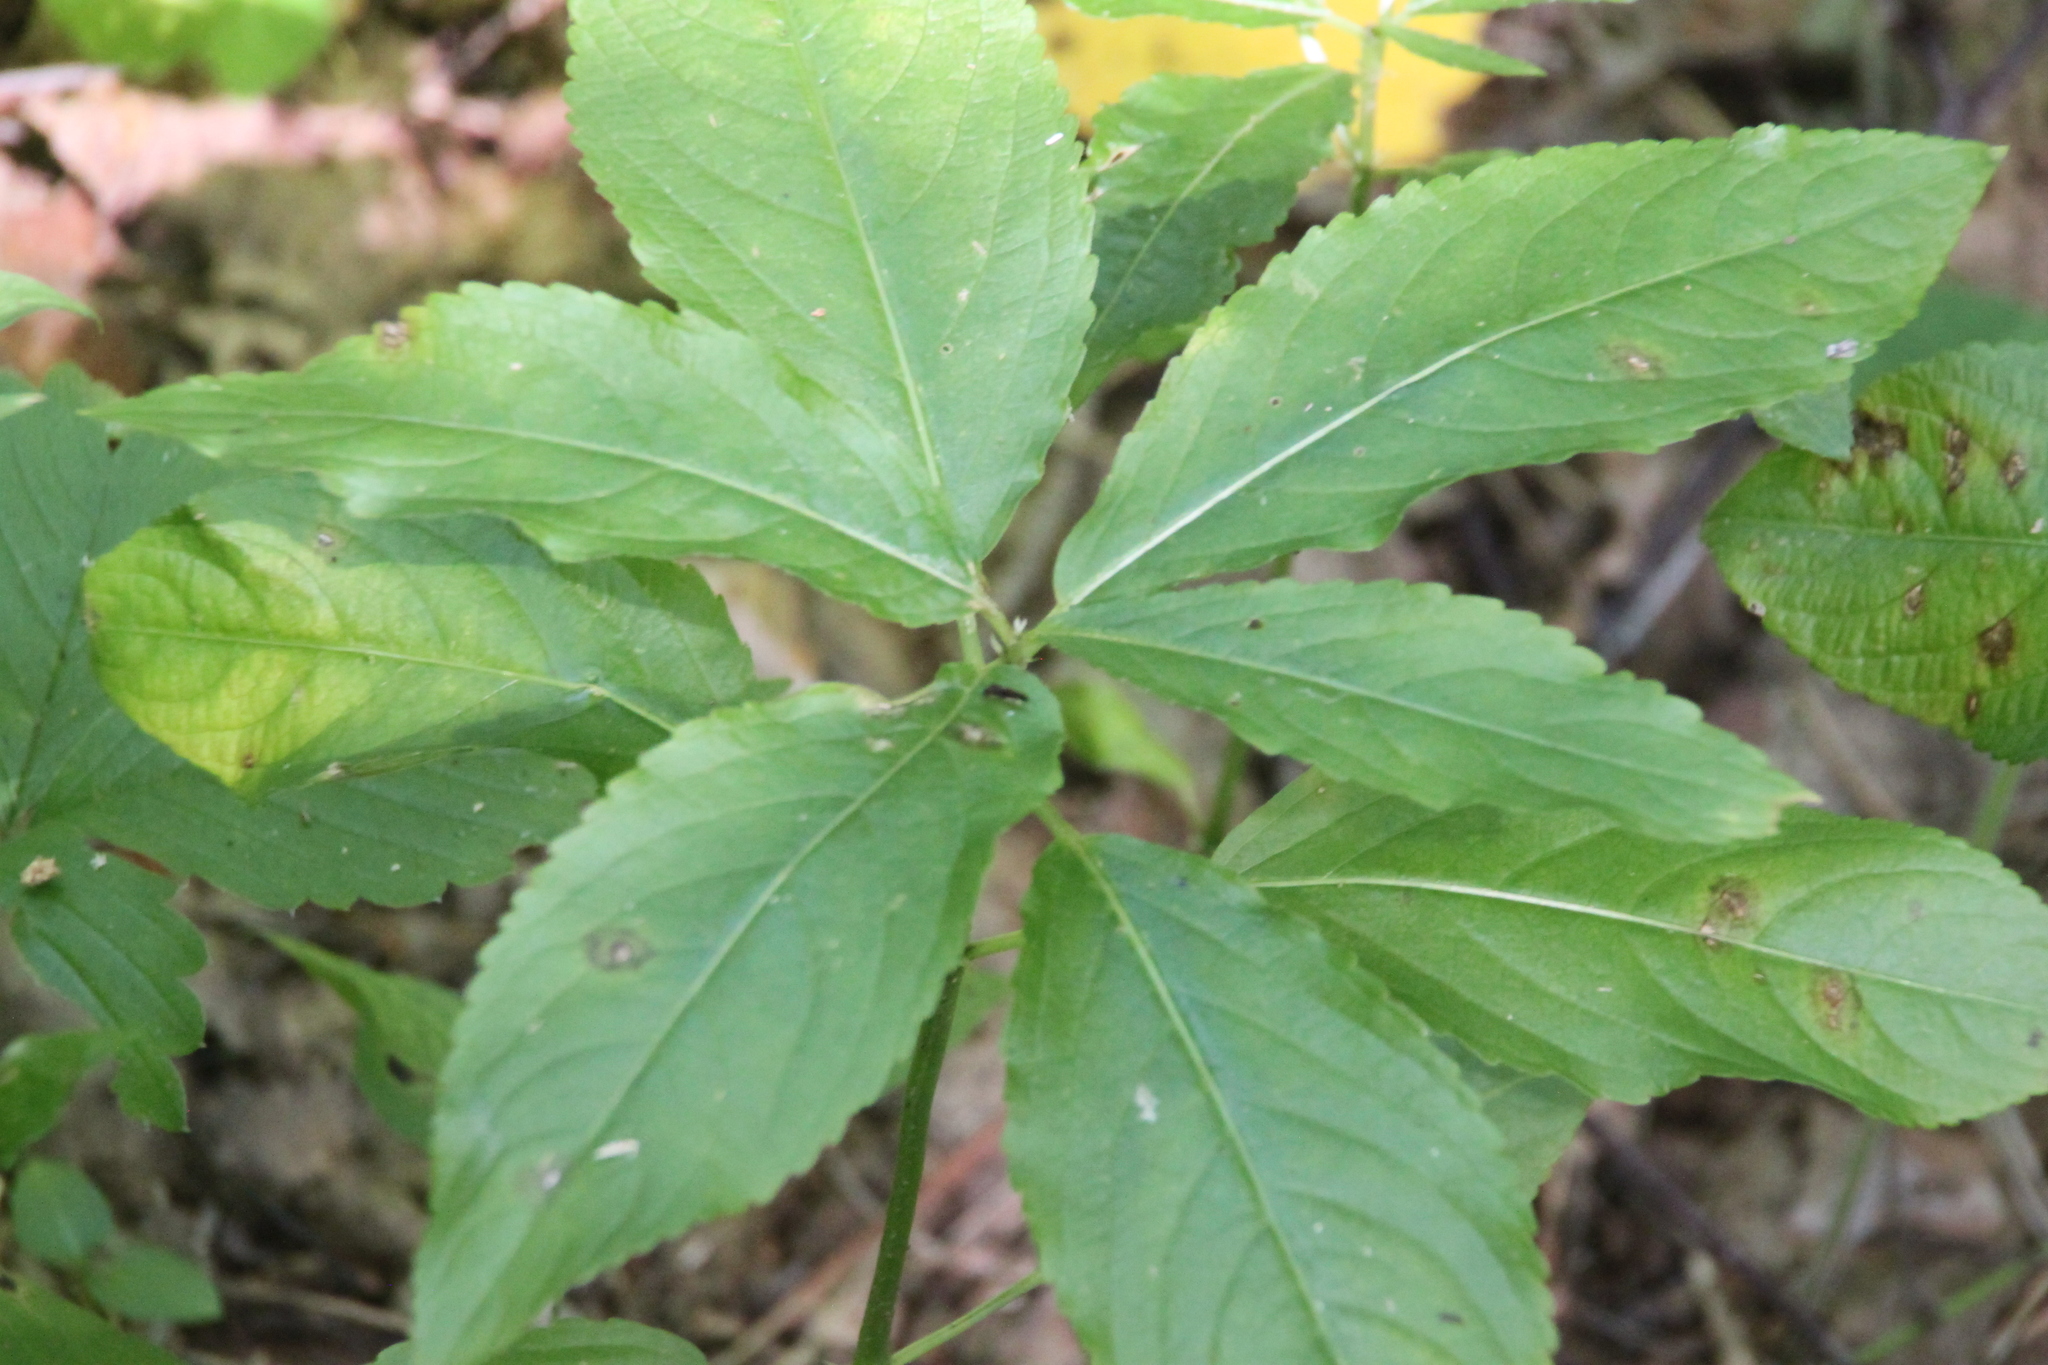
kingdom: Plantae
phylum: Tracheophyta
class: Magnoliopsida
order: Malpighiales
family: Euphorbiaceae
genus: Mercurialis
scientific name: Mercurialis perennis
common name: Dog mercury
